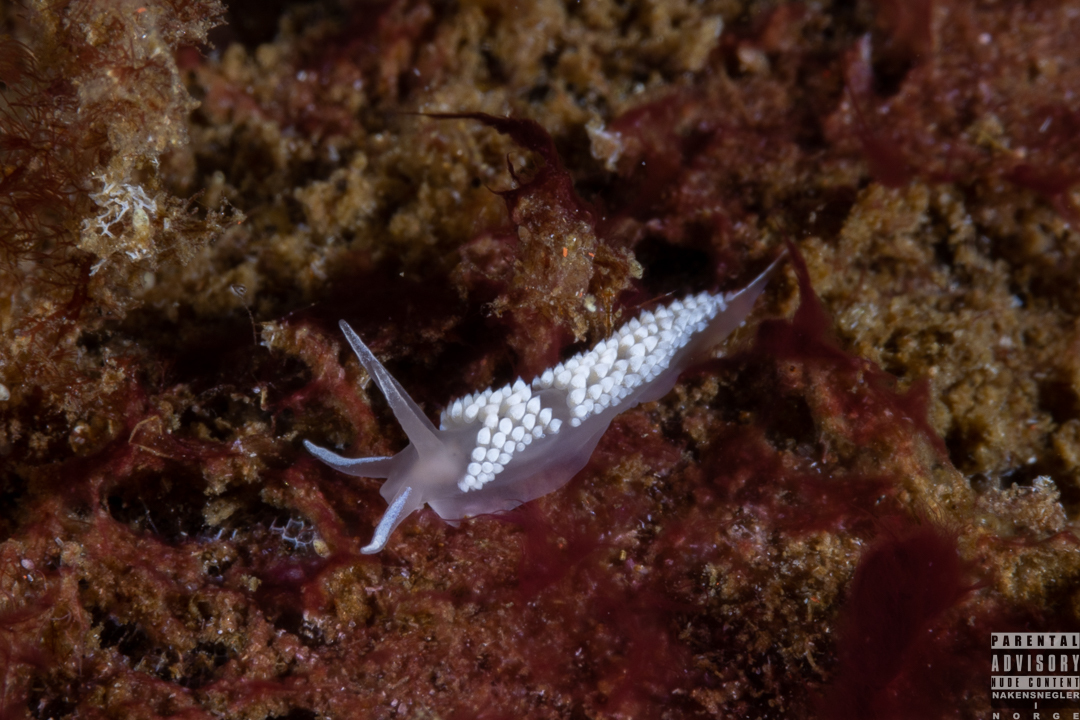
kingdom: Animalia
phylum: Mollusca
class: Gastropoda
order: Nudibranchia
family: Coryphellidae
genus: Coryphella
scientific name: Coryphella verrucosa
